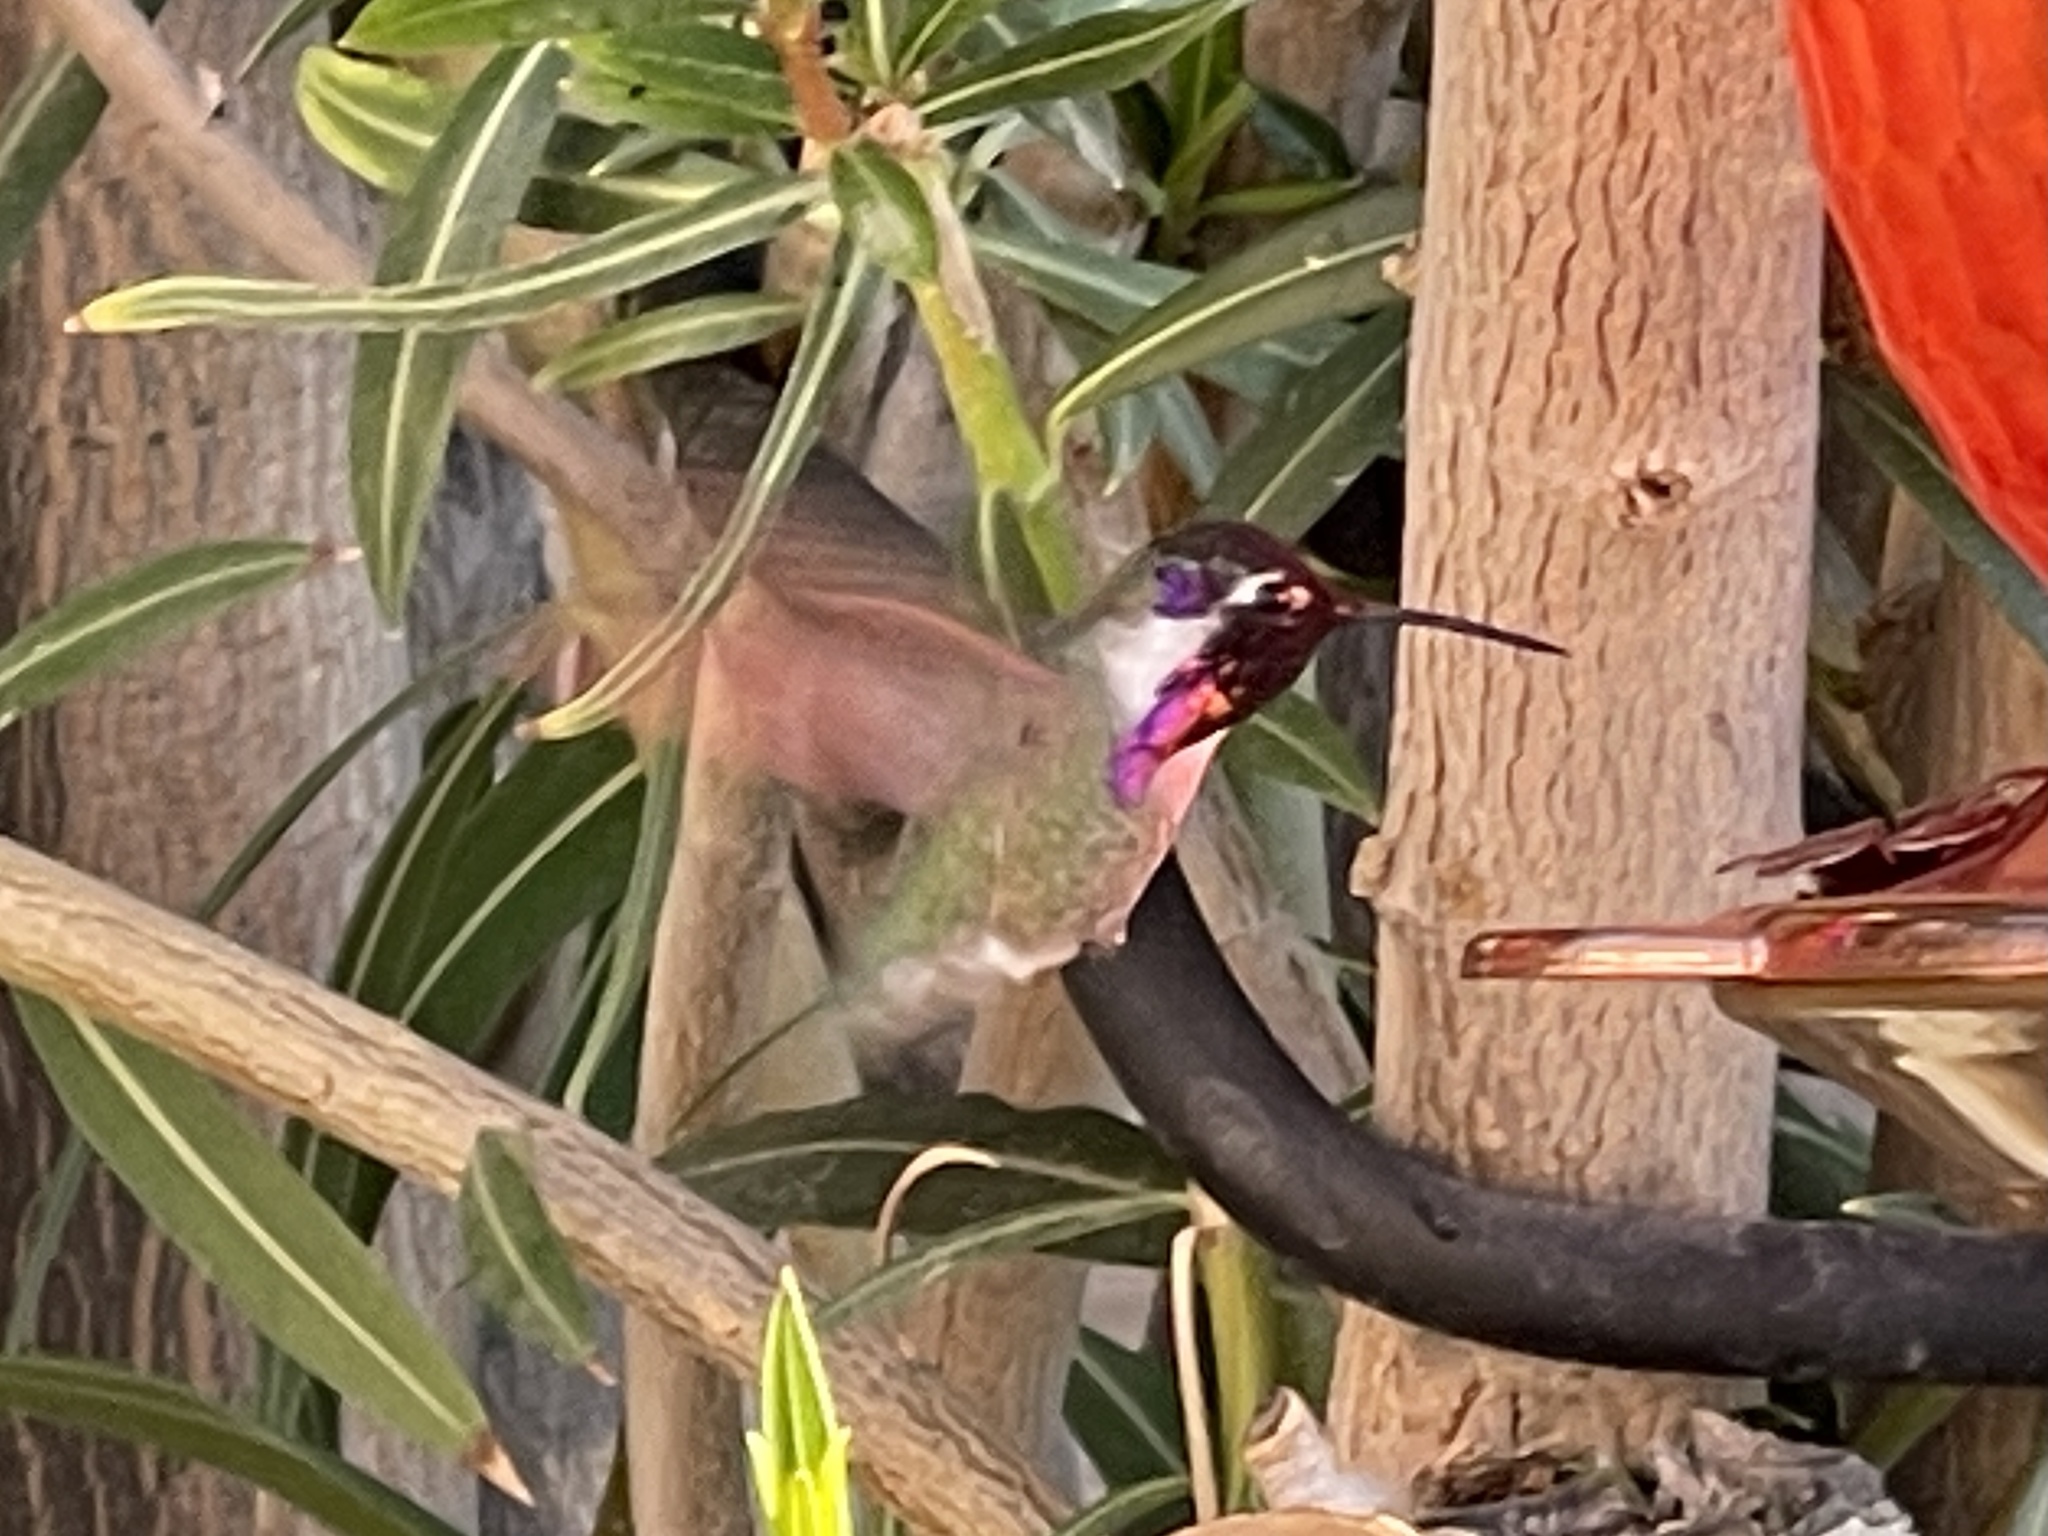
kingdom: Animalia
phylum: Chordata
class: Aves
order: Apodiformes
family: Trochilidae
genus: Calypte
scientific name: Calypte costae
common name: Costa's hummingbird
